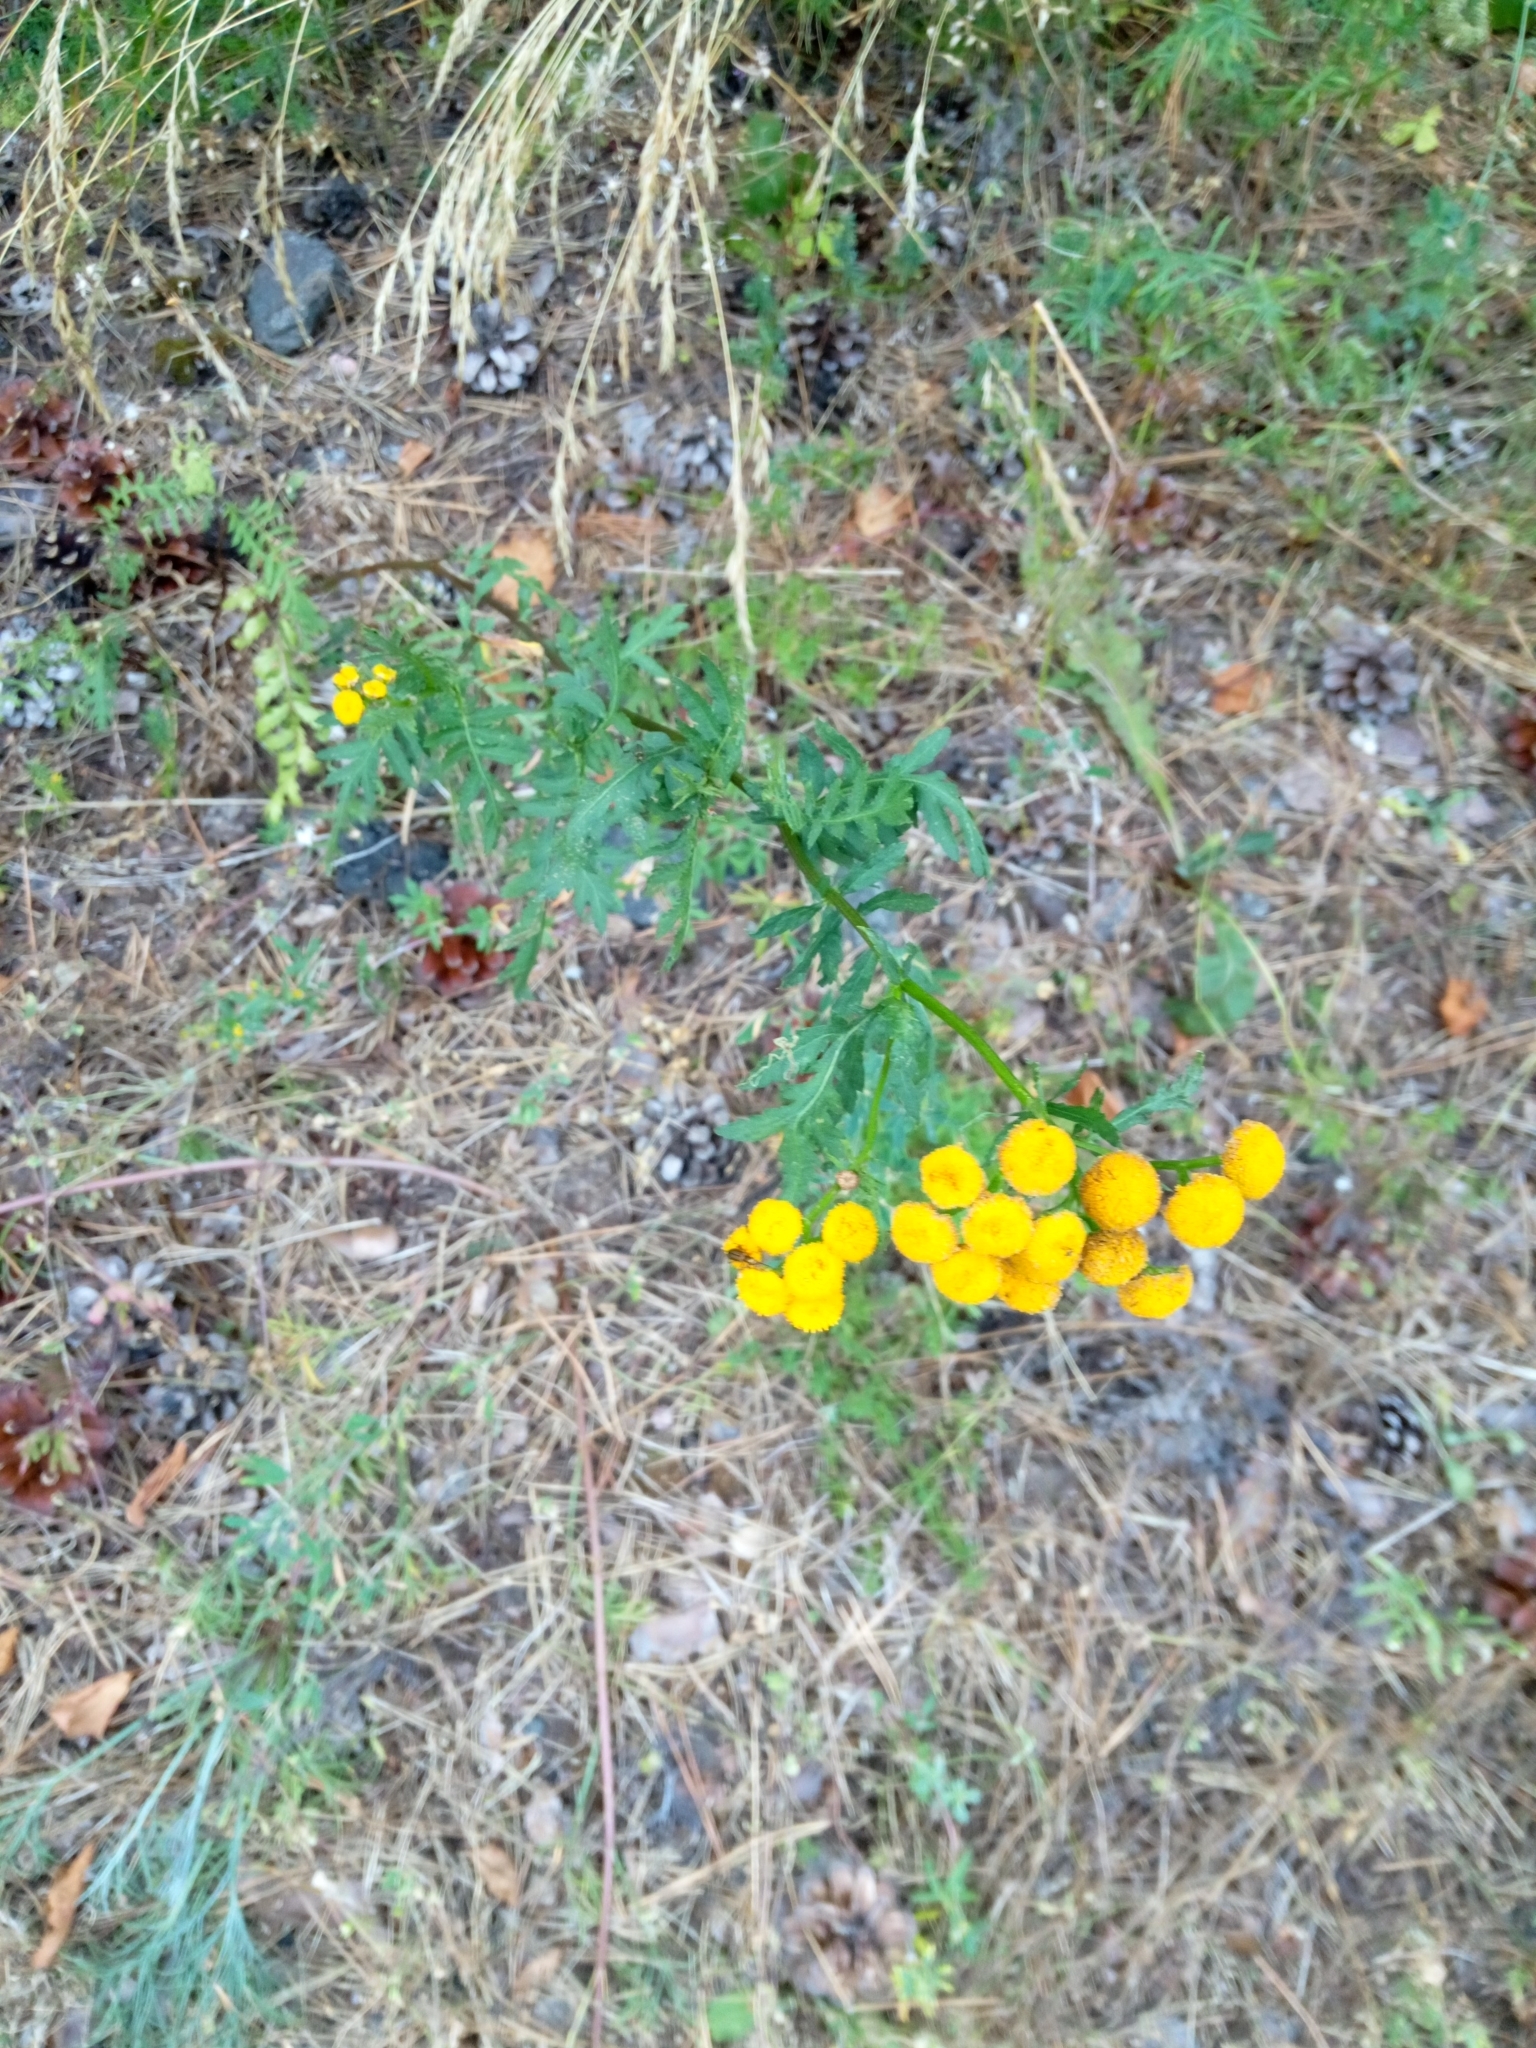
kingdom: Plantae
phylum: Tracheophyta
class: Magnoliopsida
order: Asterales
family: Asteraceae
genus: Tanacetum
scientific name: Tanacetum vulgare
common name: Common tansy
